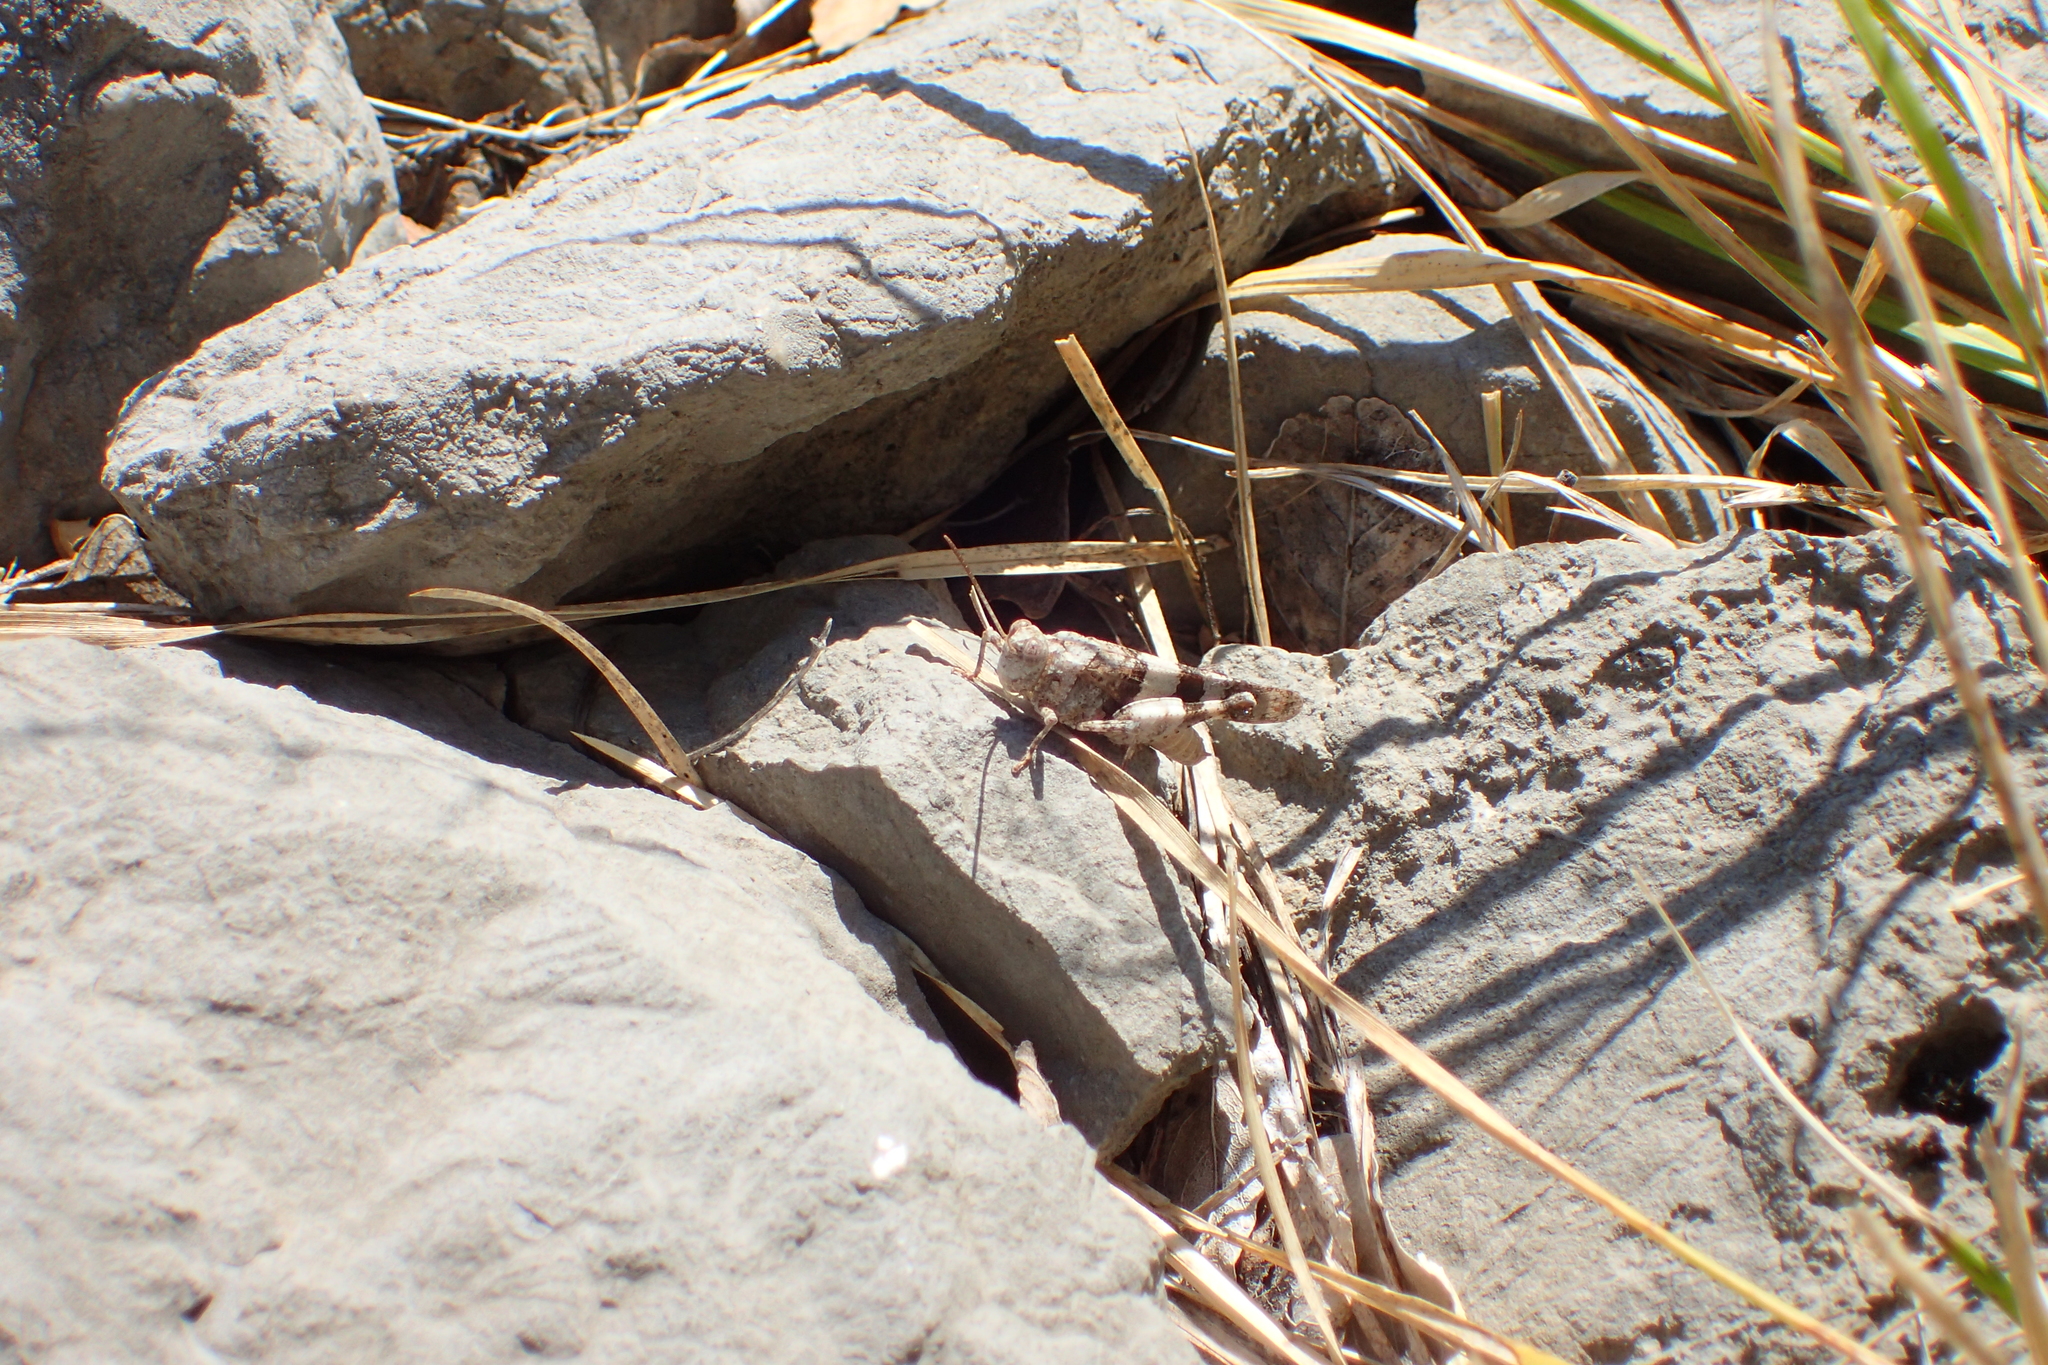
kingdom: Animalia
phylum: Arthropoda
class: Insecta
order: Orthoptera
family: Acrididae
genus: Oedipoda
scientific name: Oedipoda caerulescens
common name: Blue-winged grasshopper
